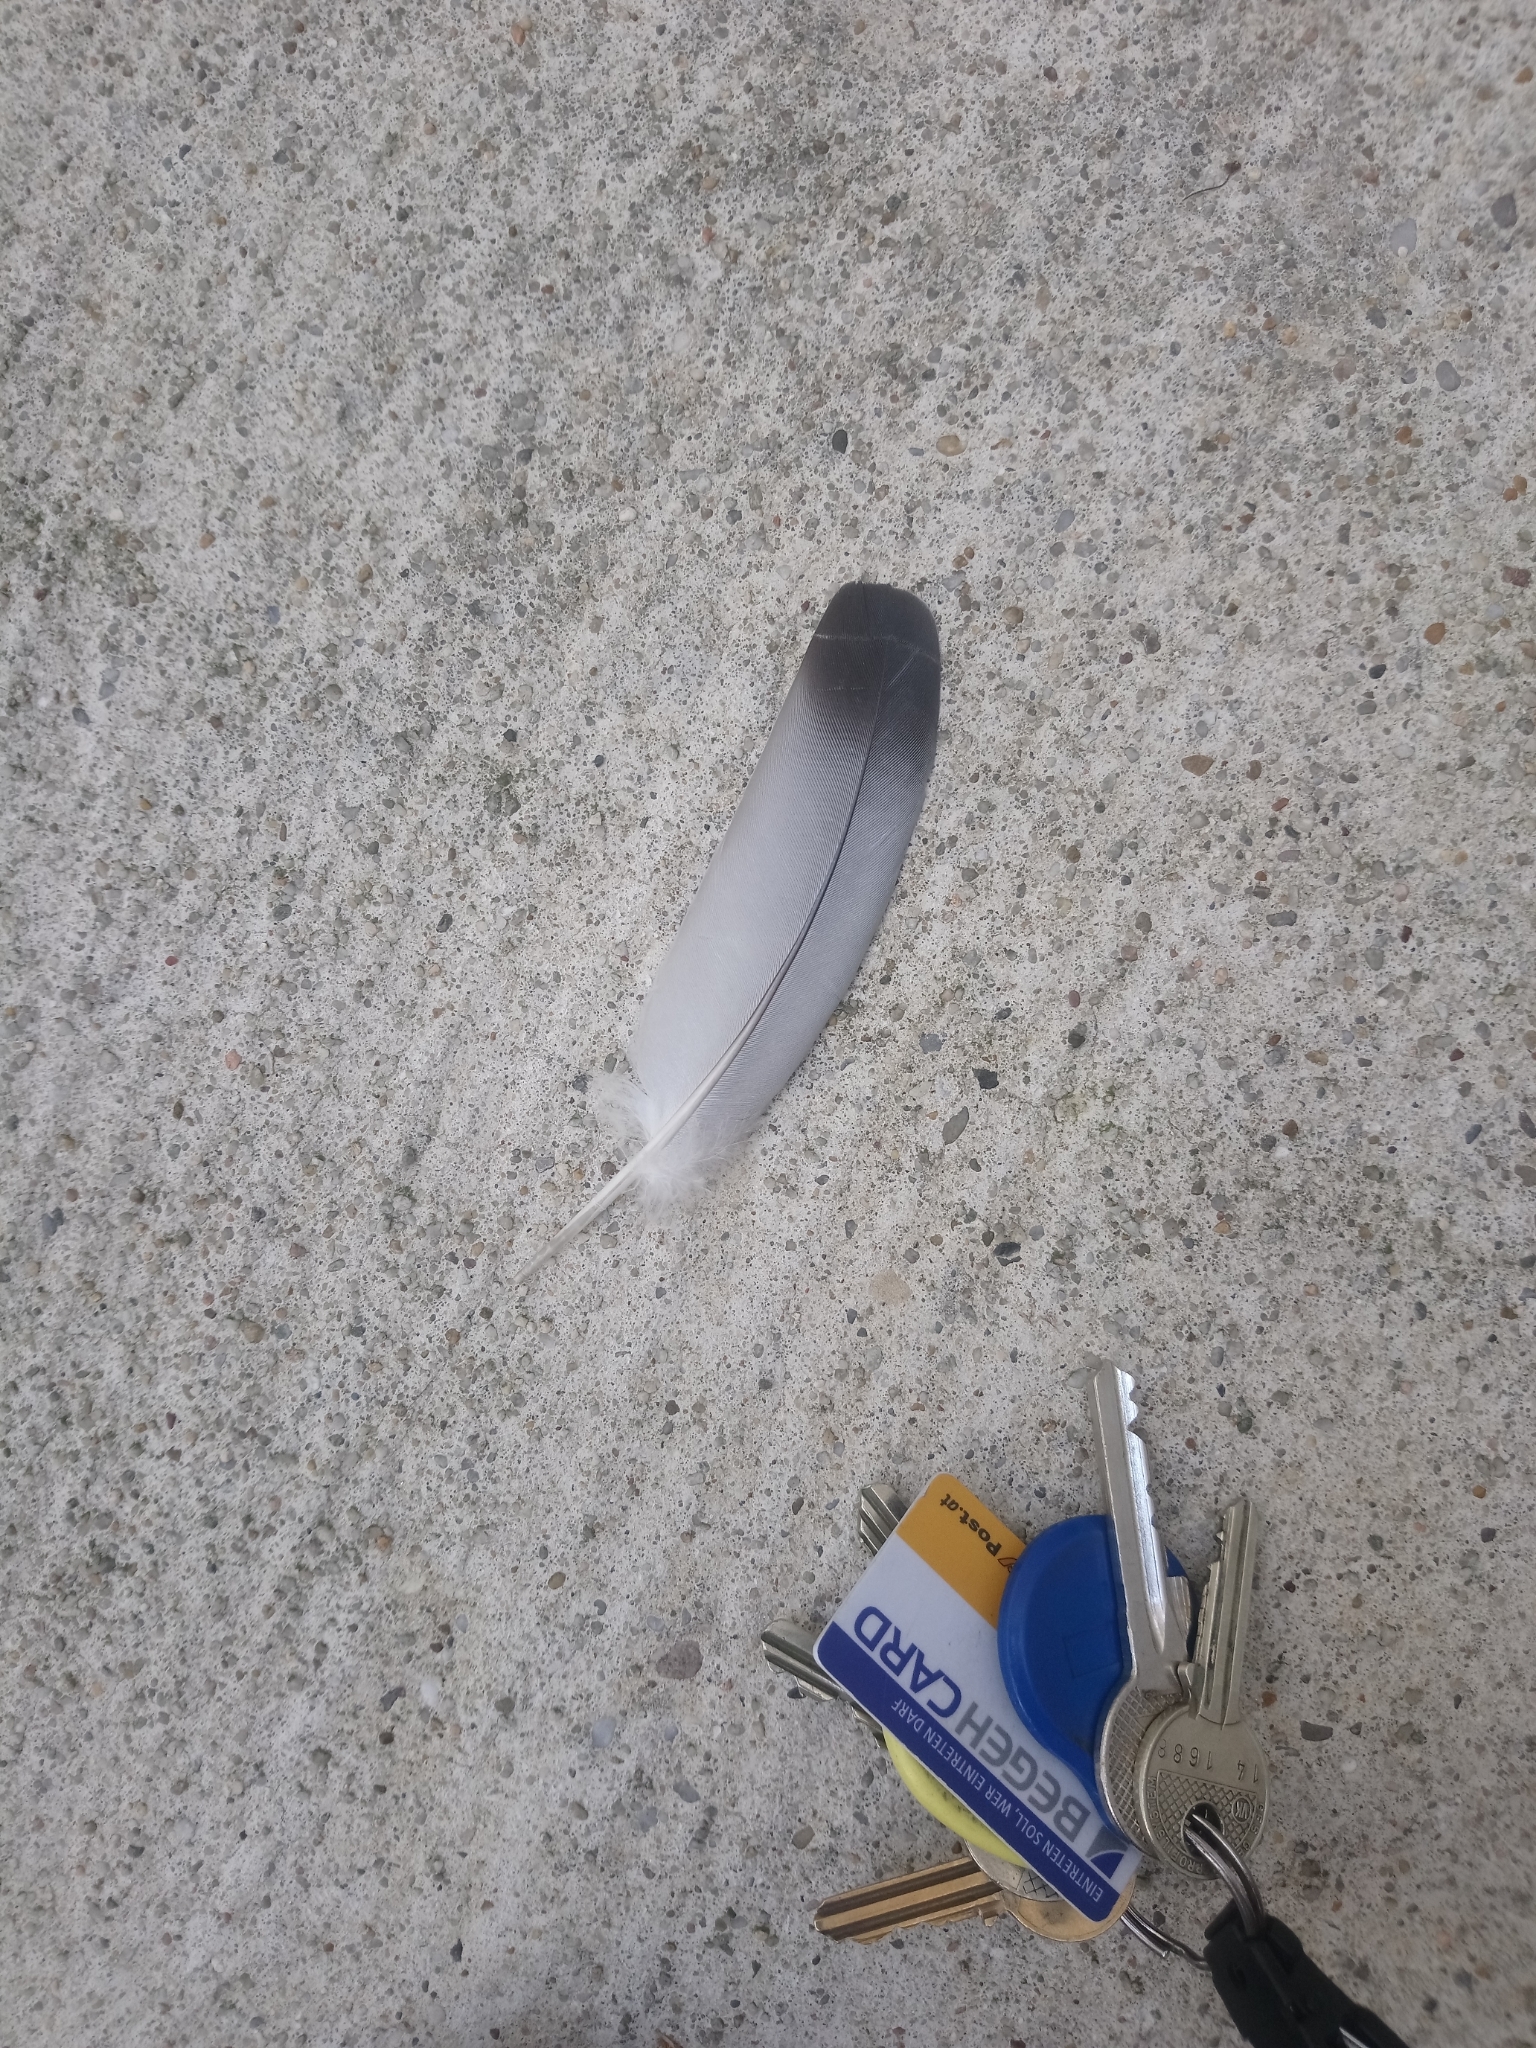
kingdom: Animalia
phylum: Chordata
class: Aves
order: Columbiformes
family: Columbidae
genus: Columba
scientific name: Columba livia
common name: Rock pigeon
